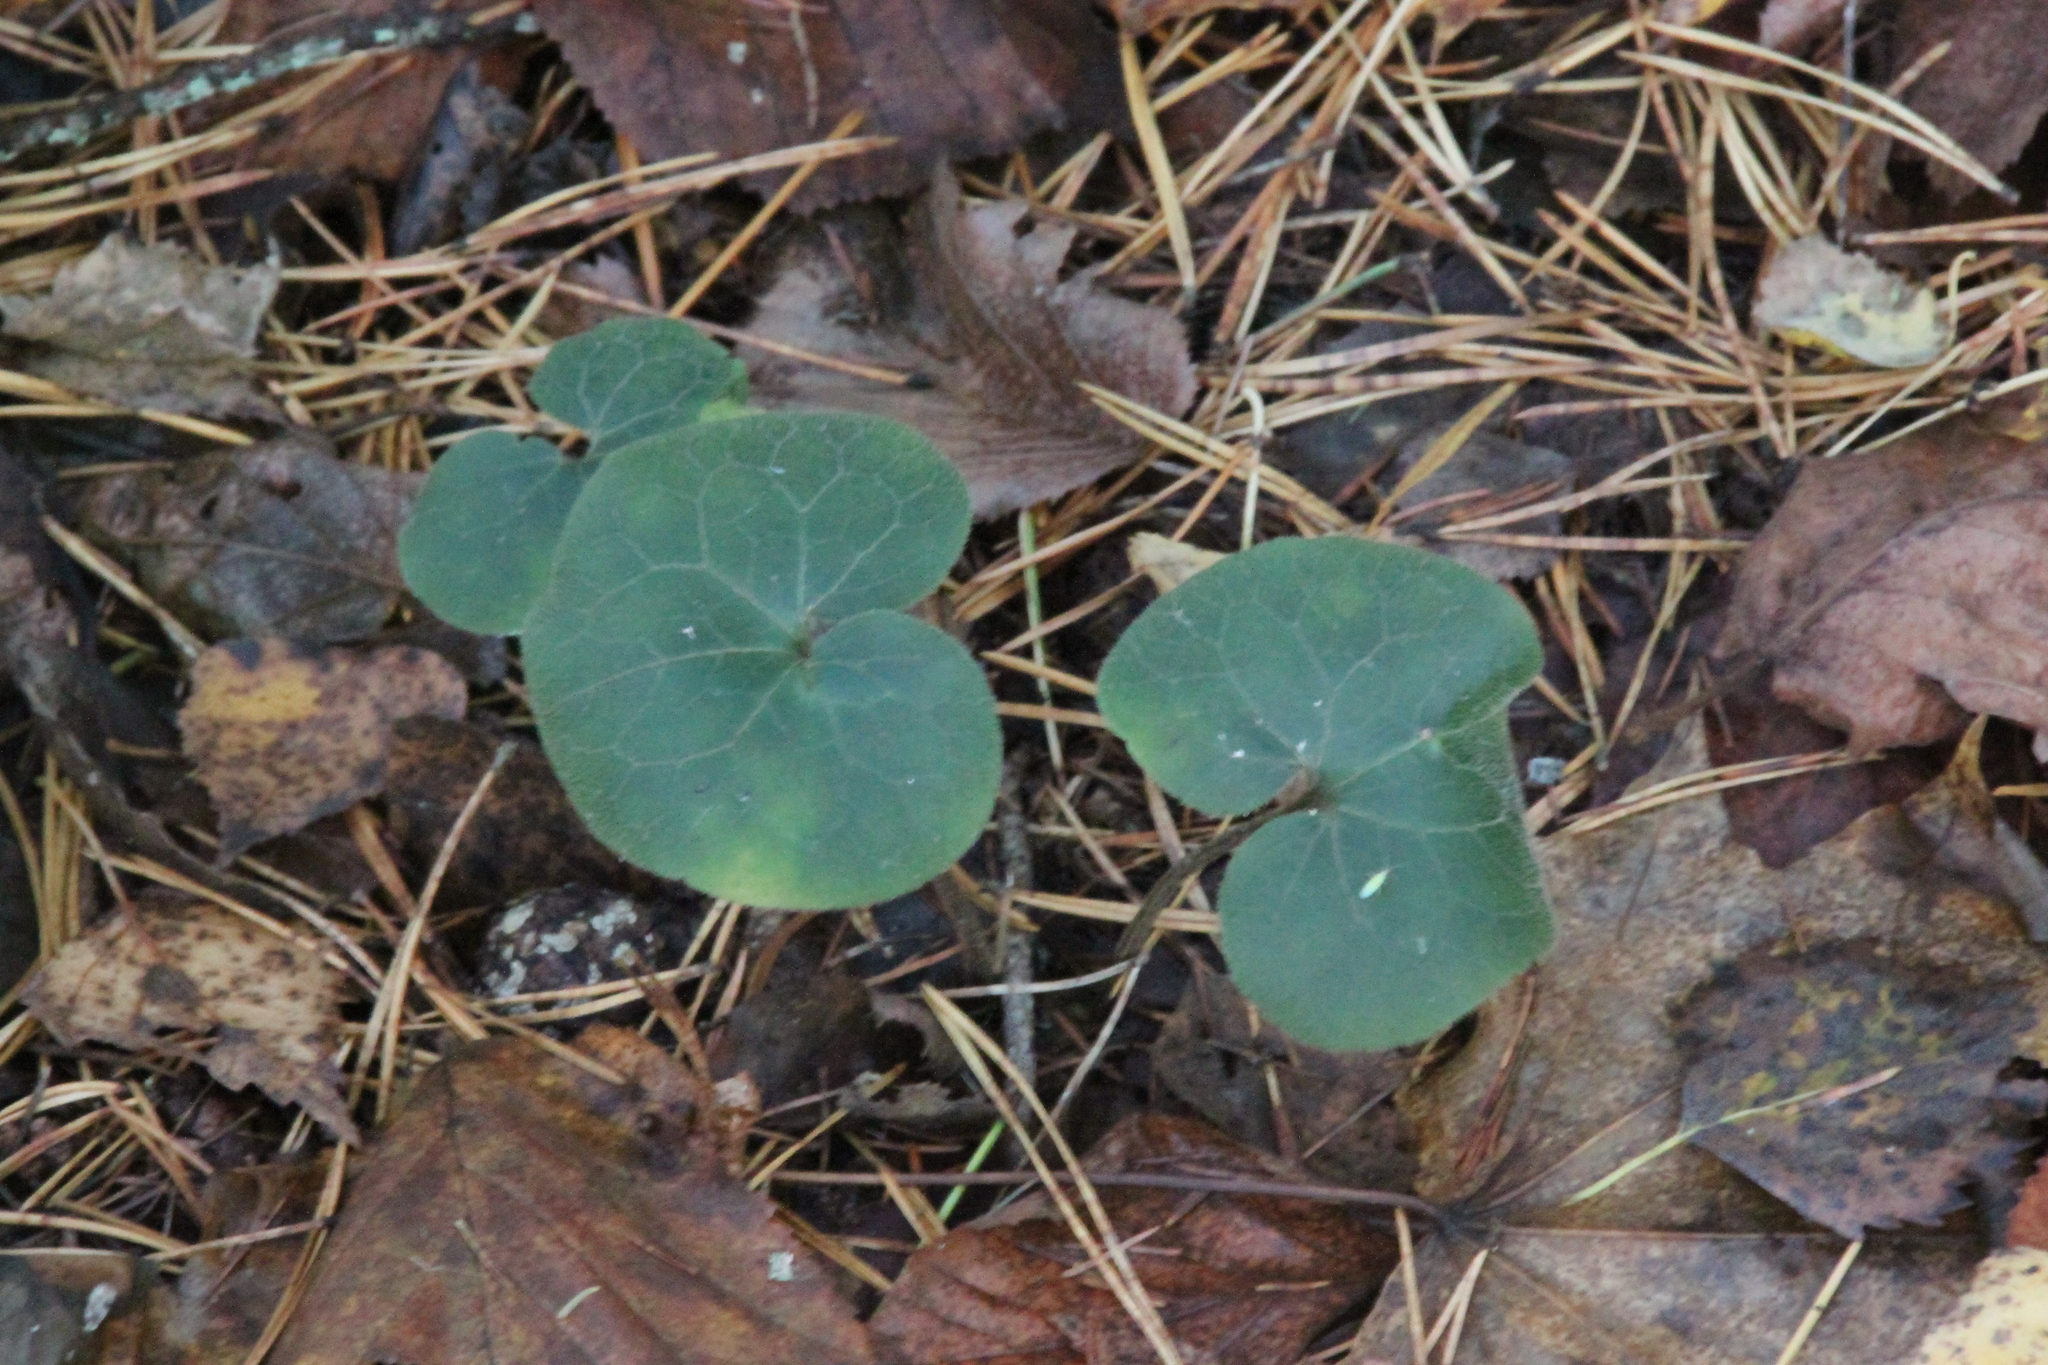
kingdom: Plantae
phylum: Tracheophyta
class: Magnoliopsida
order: Piperales
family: Aristolochiaceae
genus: Asarum
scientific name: Asarum europaeum
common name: Asarabacca
